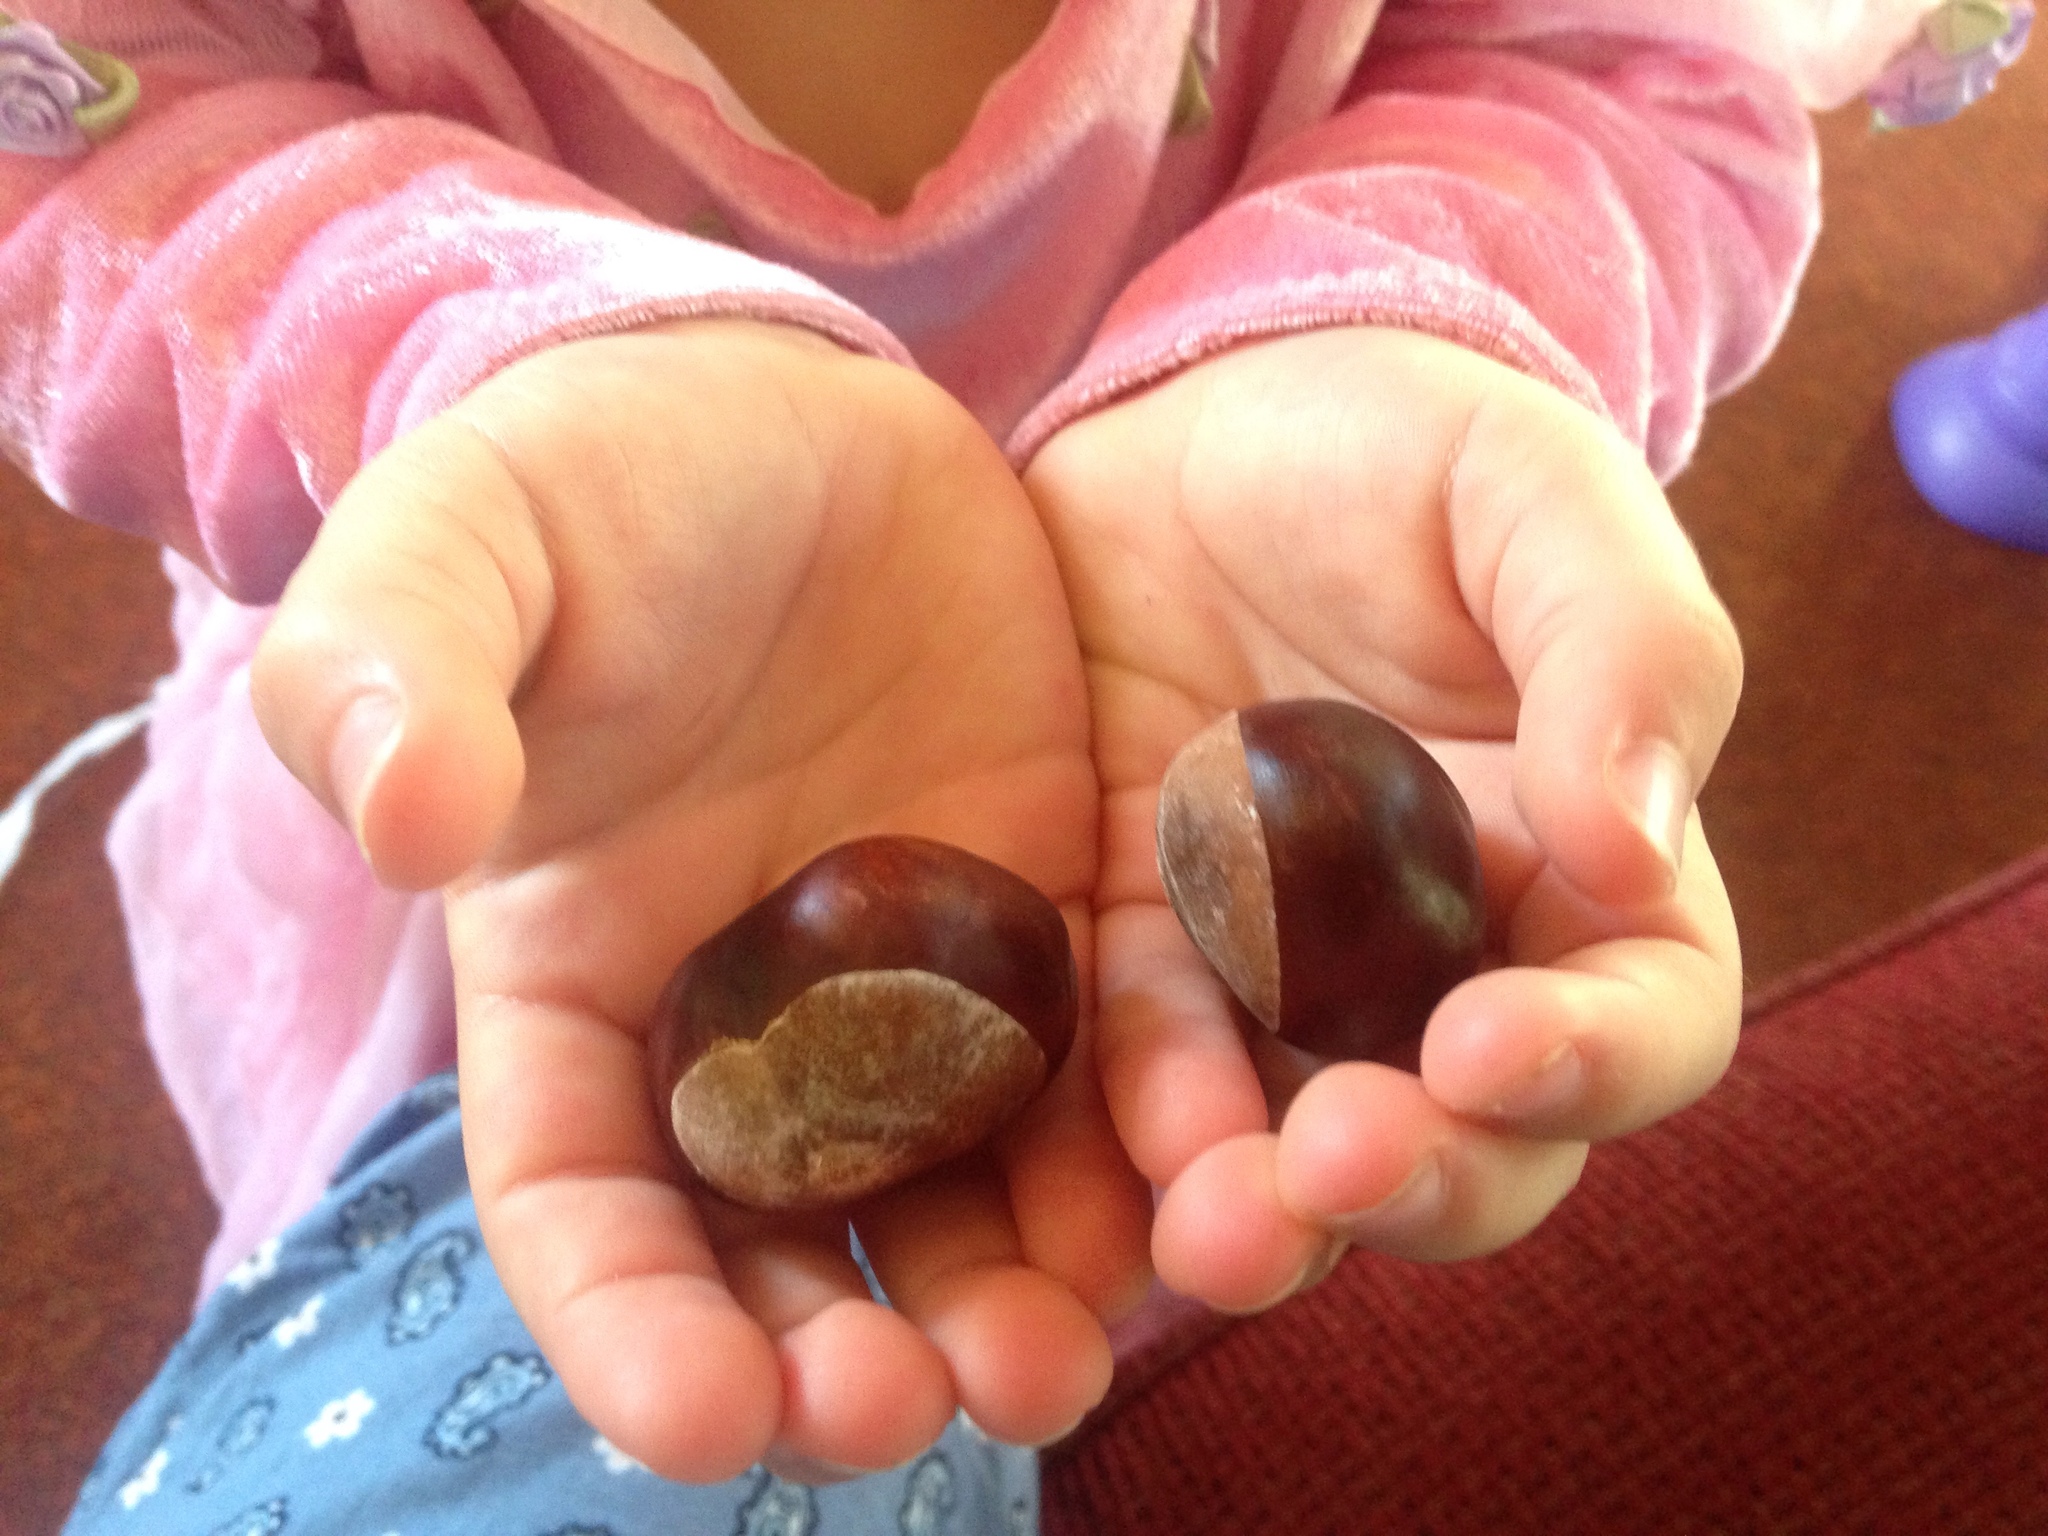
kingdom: Plantae
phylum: Tracheophyta
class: Magnoliopsida
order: Sapindales
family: Sapindaceae
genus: Aesculus
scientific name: Aesculus hippocastanum
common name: Horse-chestnut
